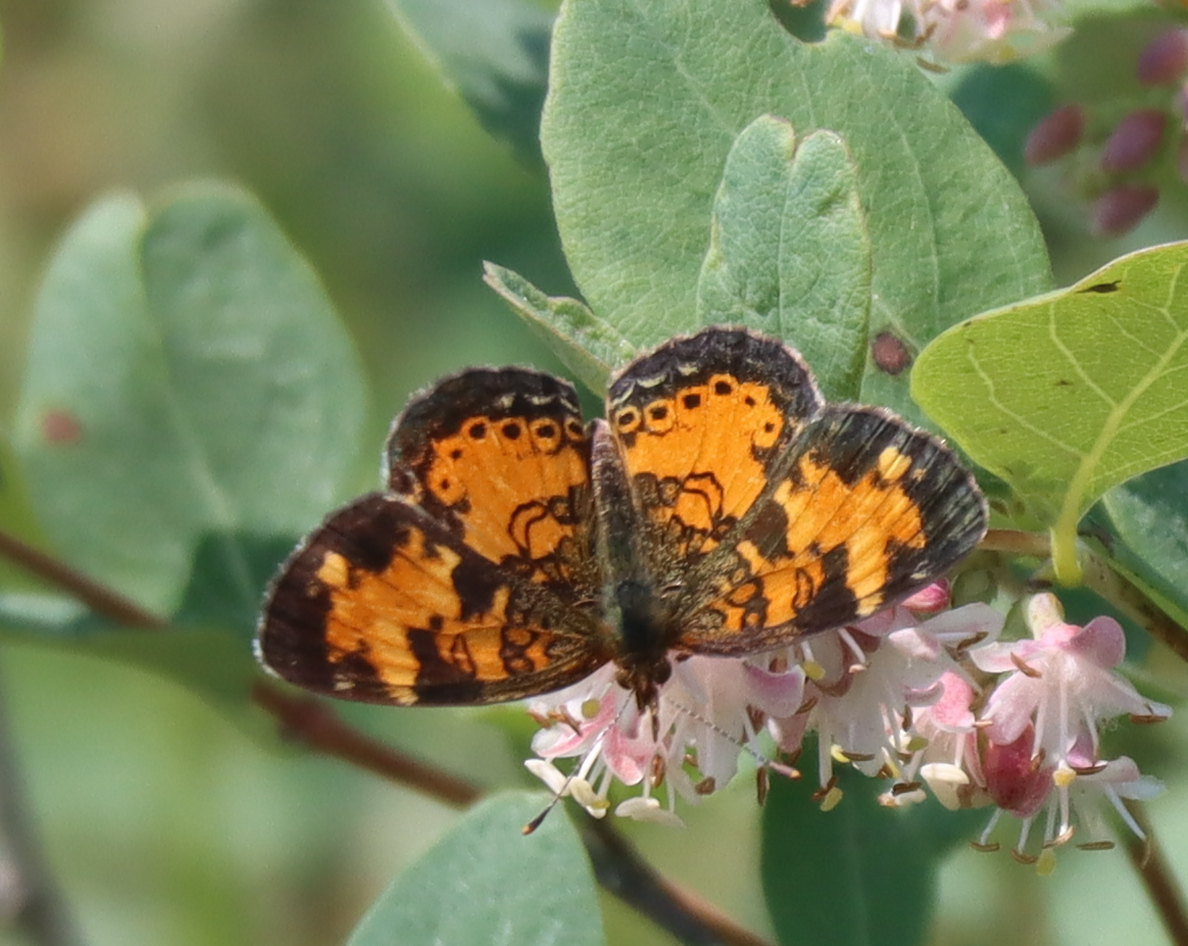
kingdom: Animalia
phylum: Arthropoda
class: Insecta
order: Lepidoptera
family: Nymphalidae
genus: Phyciodes
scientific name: Phyciodes tharos
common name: Pearl crescent
